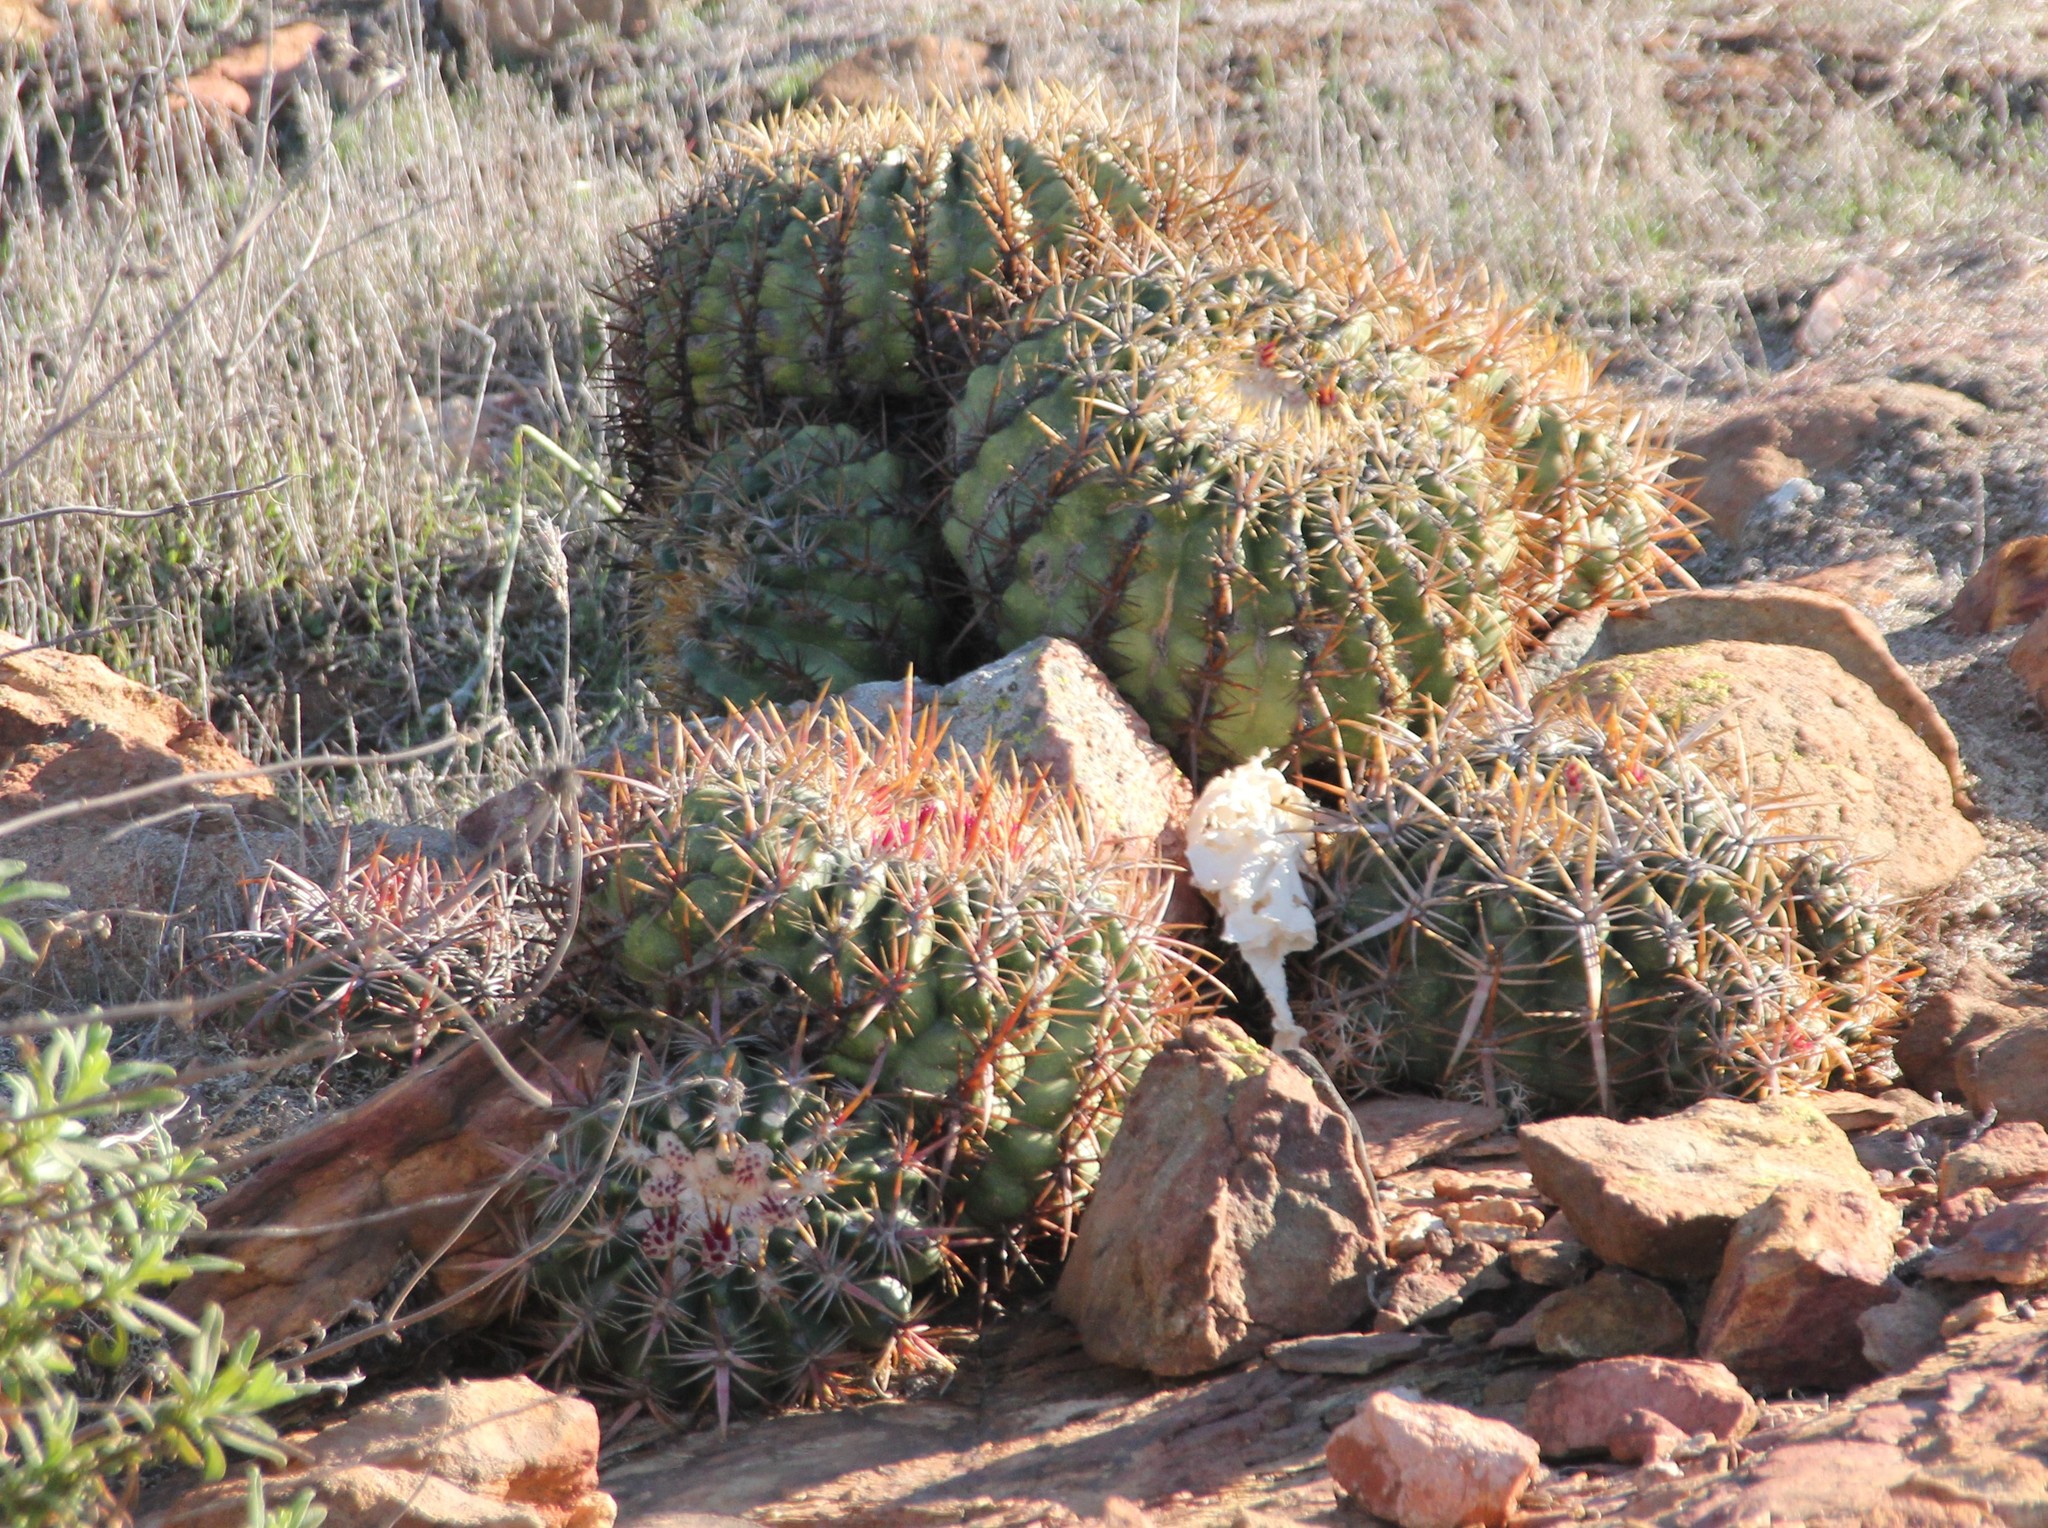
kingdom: Plantae
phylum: Tracheophyta
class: Magnoliopsida
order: Caryophyllales
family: Cactaceae
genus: Ferocactus
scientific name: Ferocactus viridescens
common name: San diego barrel cactus
